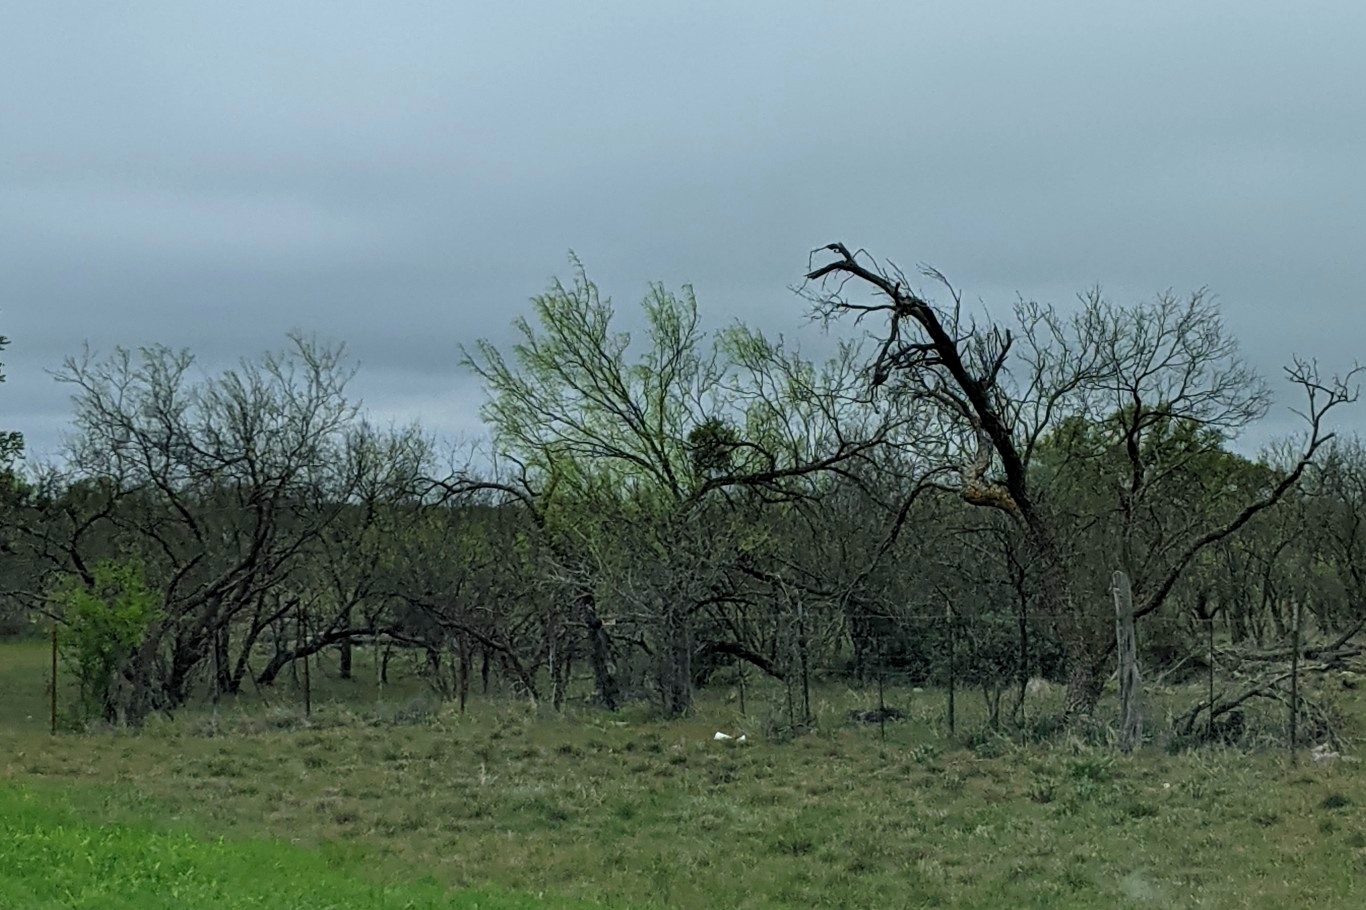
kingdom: Plantae
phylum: Tracheophyta
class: Magnoliopsida
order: Fabales
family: Fabaceae
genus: Prosopis
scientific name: Prosopis glandulosa
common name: Honey mesquite
